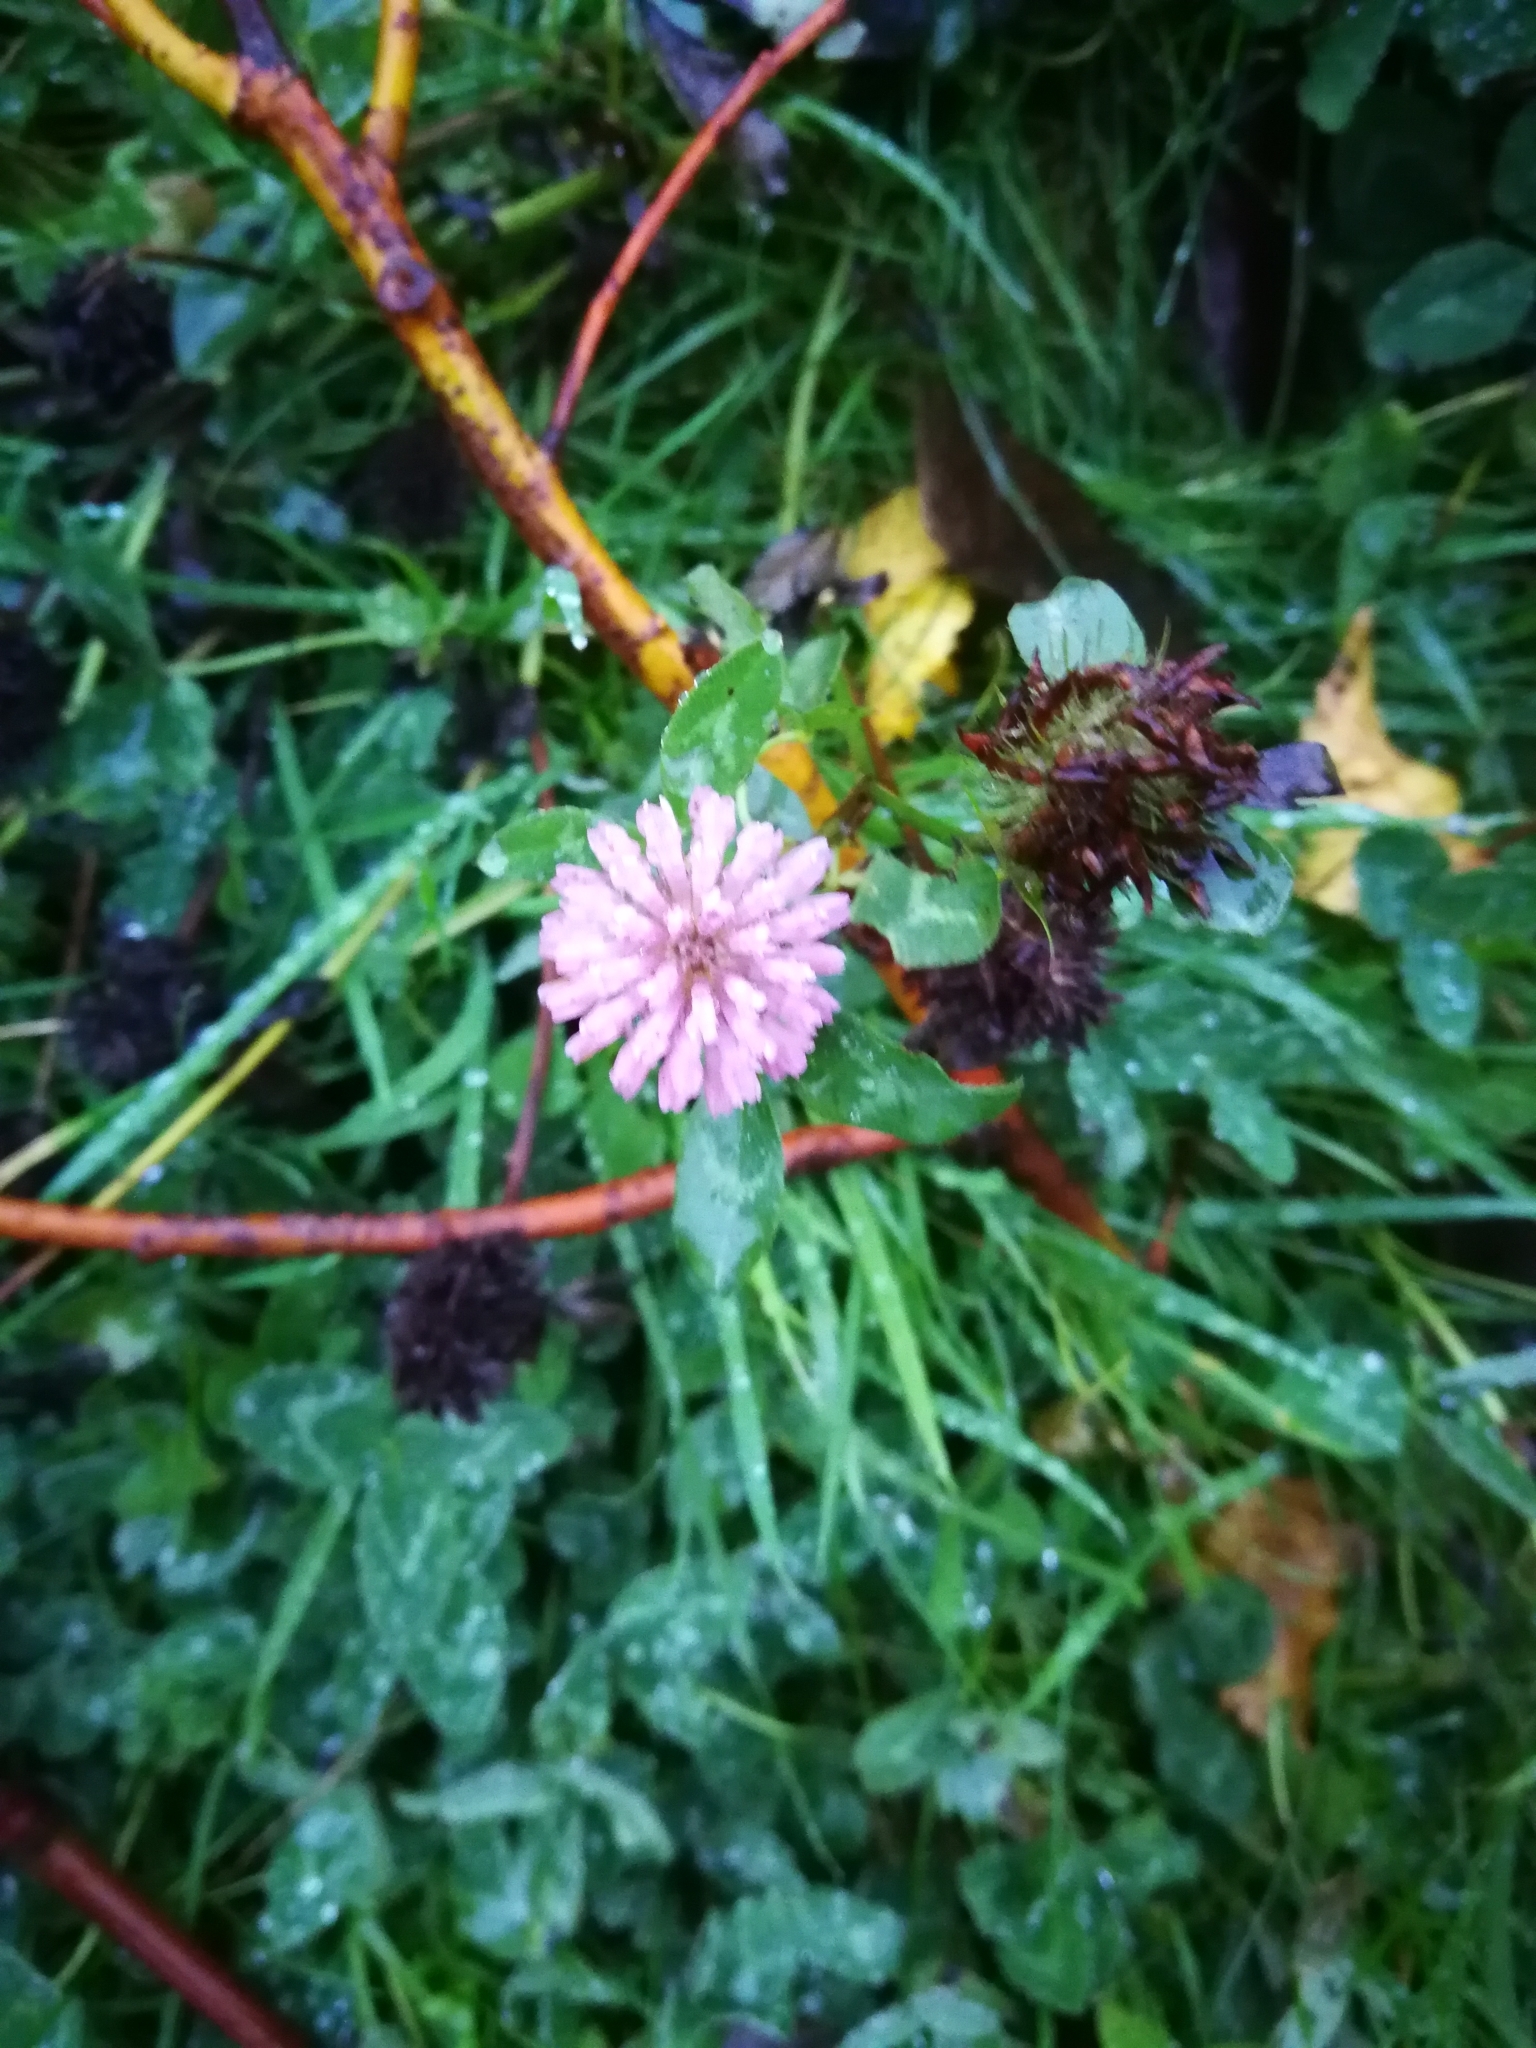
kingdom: Plantae
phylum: Tracheophyta
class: Magnoliopsida
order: Fabales
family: Fabaceae
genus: Trifolium
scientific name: Trifolium pratense
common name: Red clover
